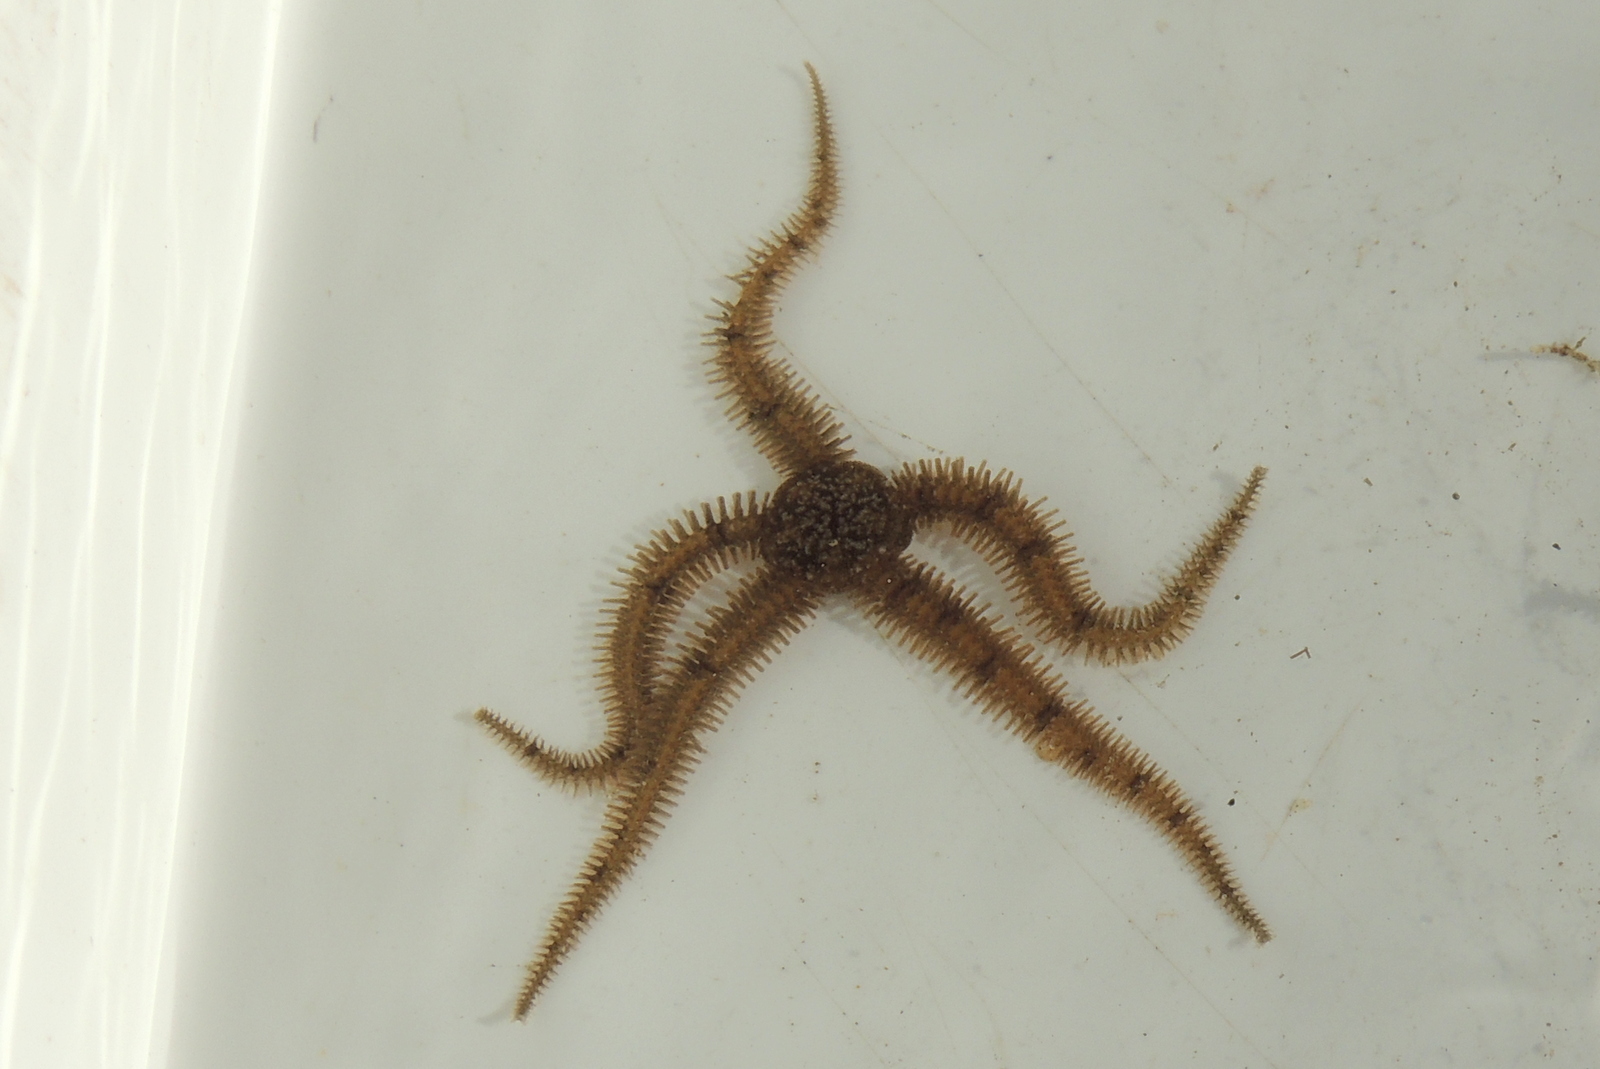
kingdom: Animalia
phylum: Echinodermata
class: Ophiuroidea
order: Ophiacanthida
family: Ophiopteridae
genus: Ophiopteris
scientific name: Ophiopteris papillosa
